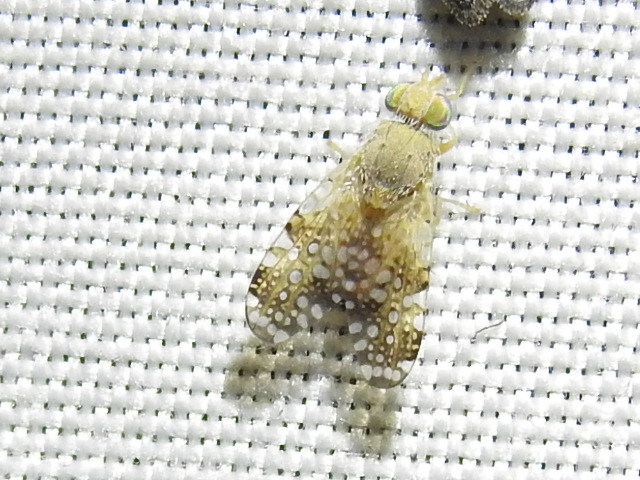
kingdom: Animalia
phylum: Arthropoda
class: Insecta
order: Diptera
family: Tephritidae
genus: Acinia
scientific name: Acinia picturata
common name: Sourbush seed fly
